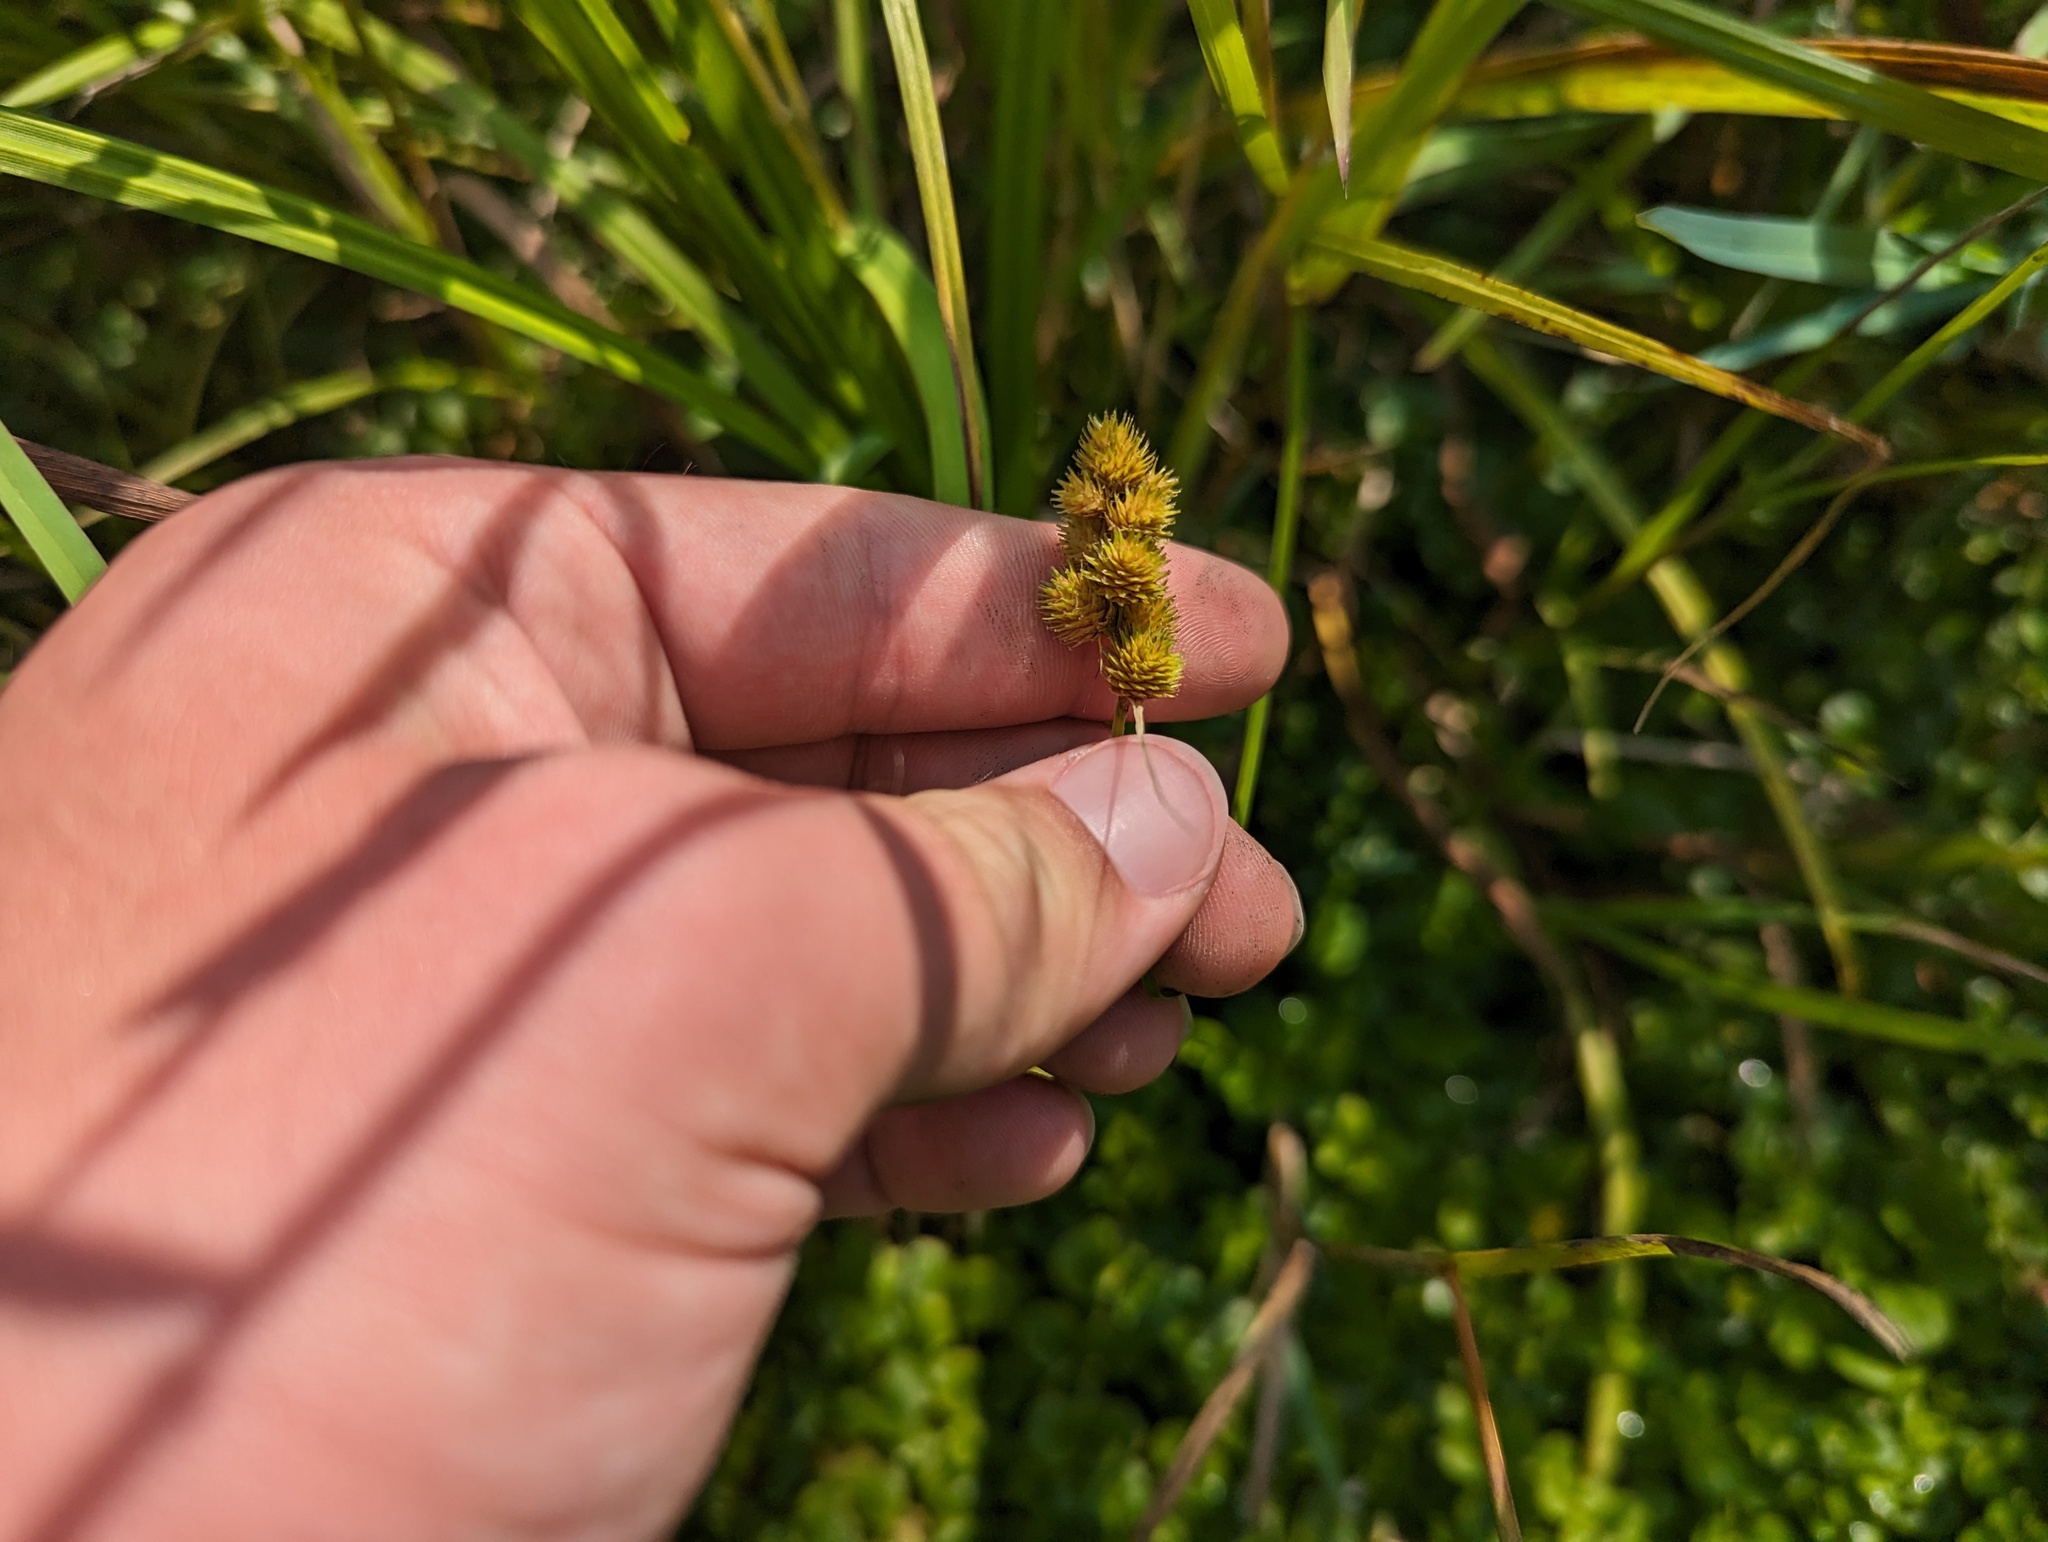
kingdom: Plantae
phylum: Tracheophyta
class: Liliopsida
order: Poales
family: Cyperaceae
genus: Carex
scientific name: Carex cristatella
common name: Crested oval sedge
